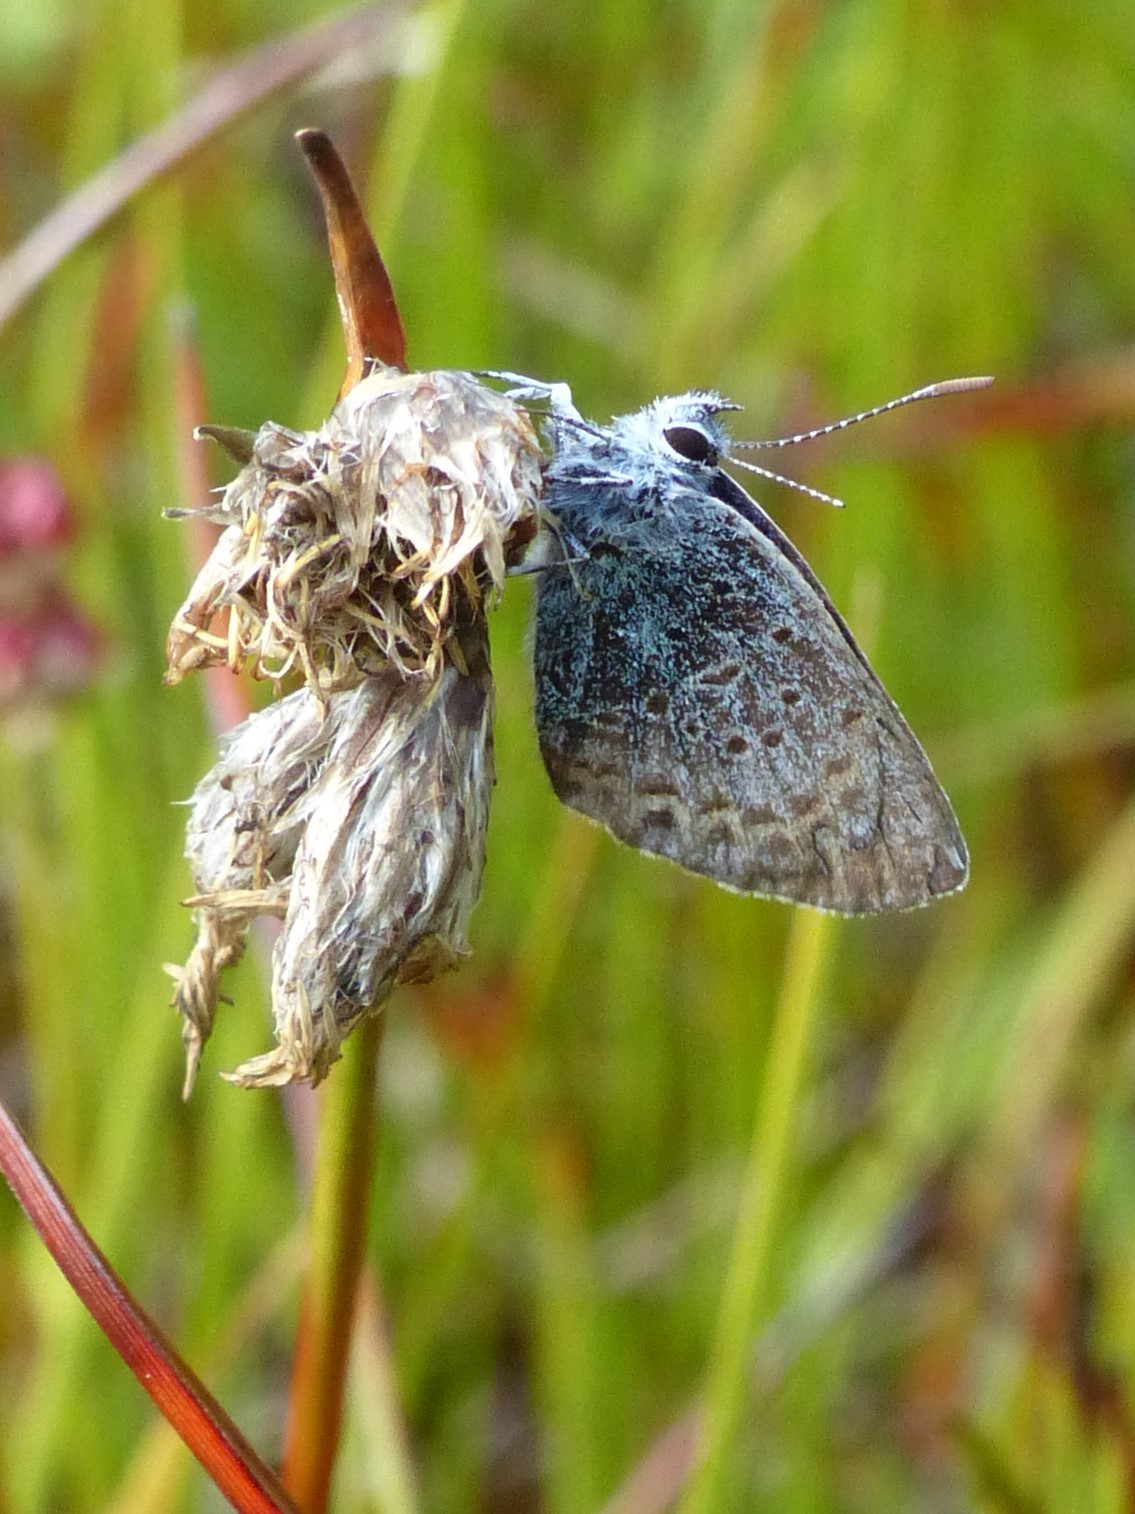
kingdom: Animalia
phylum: Arthropoda
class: Insecta
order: Lepidoptera
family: Lycaenidae
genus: Lycaeides
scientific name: Lycaeides anna
